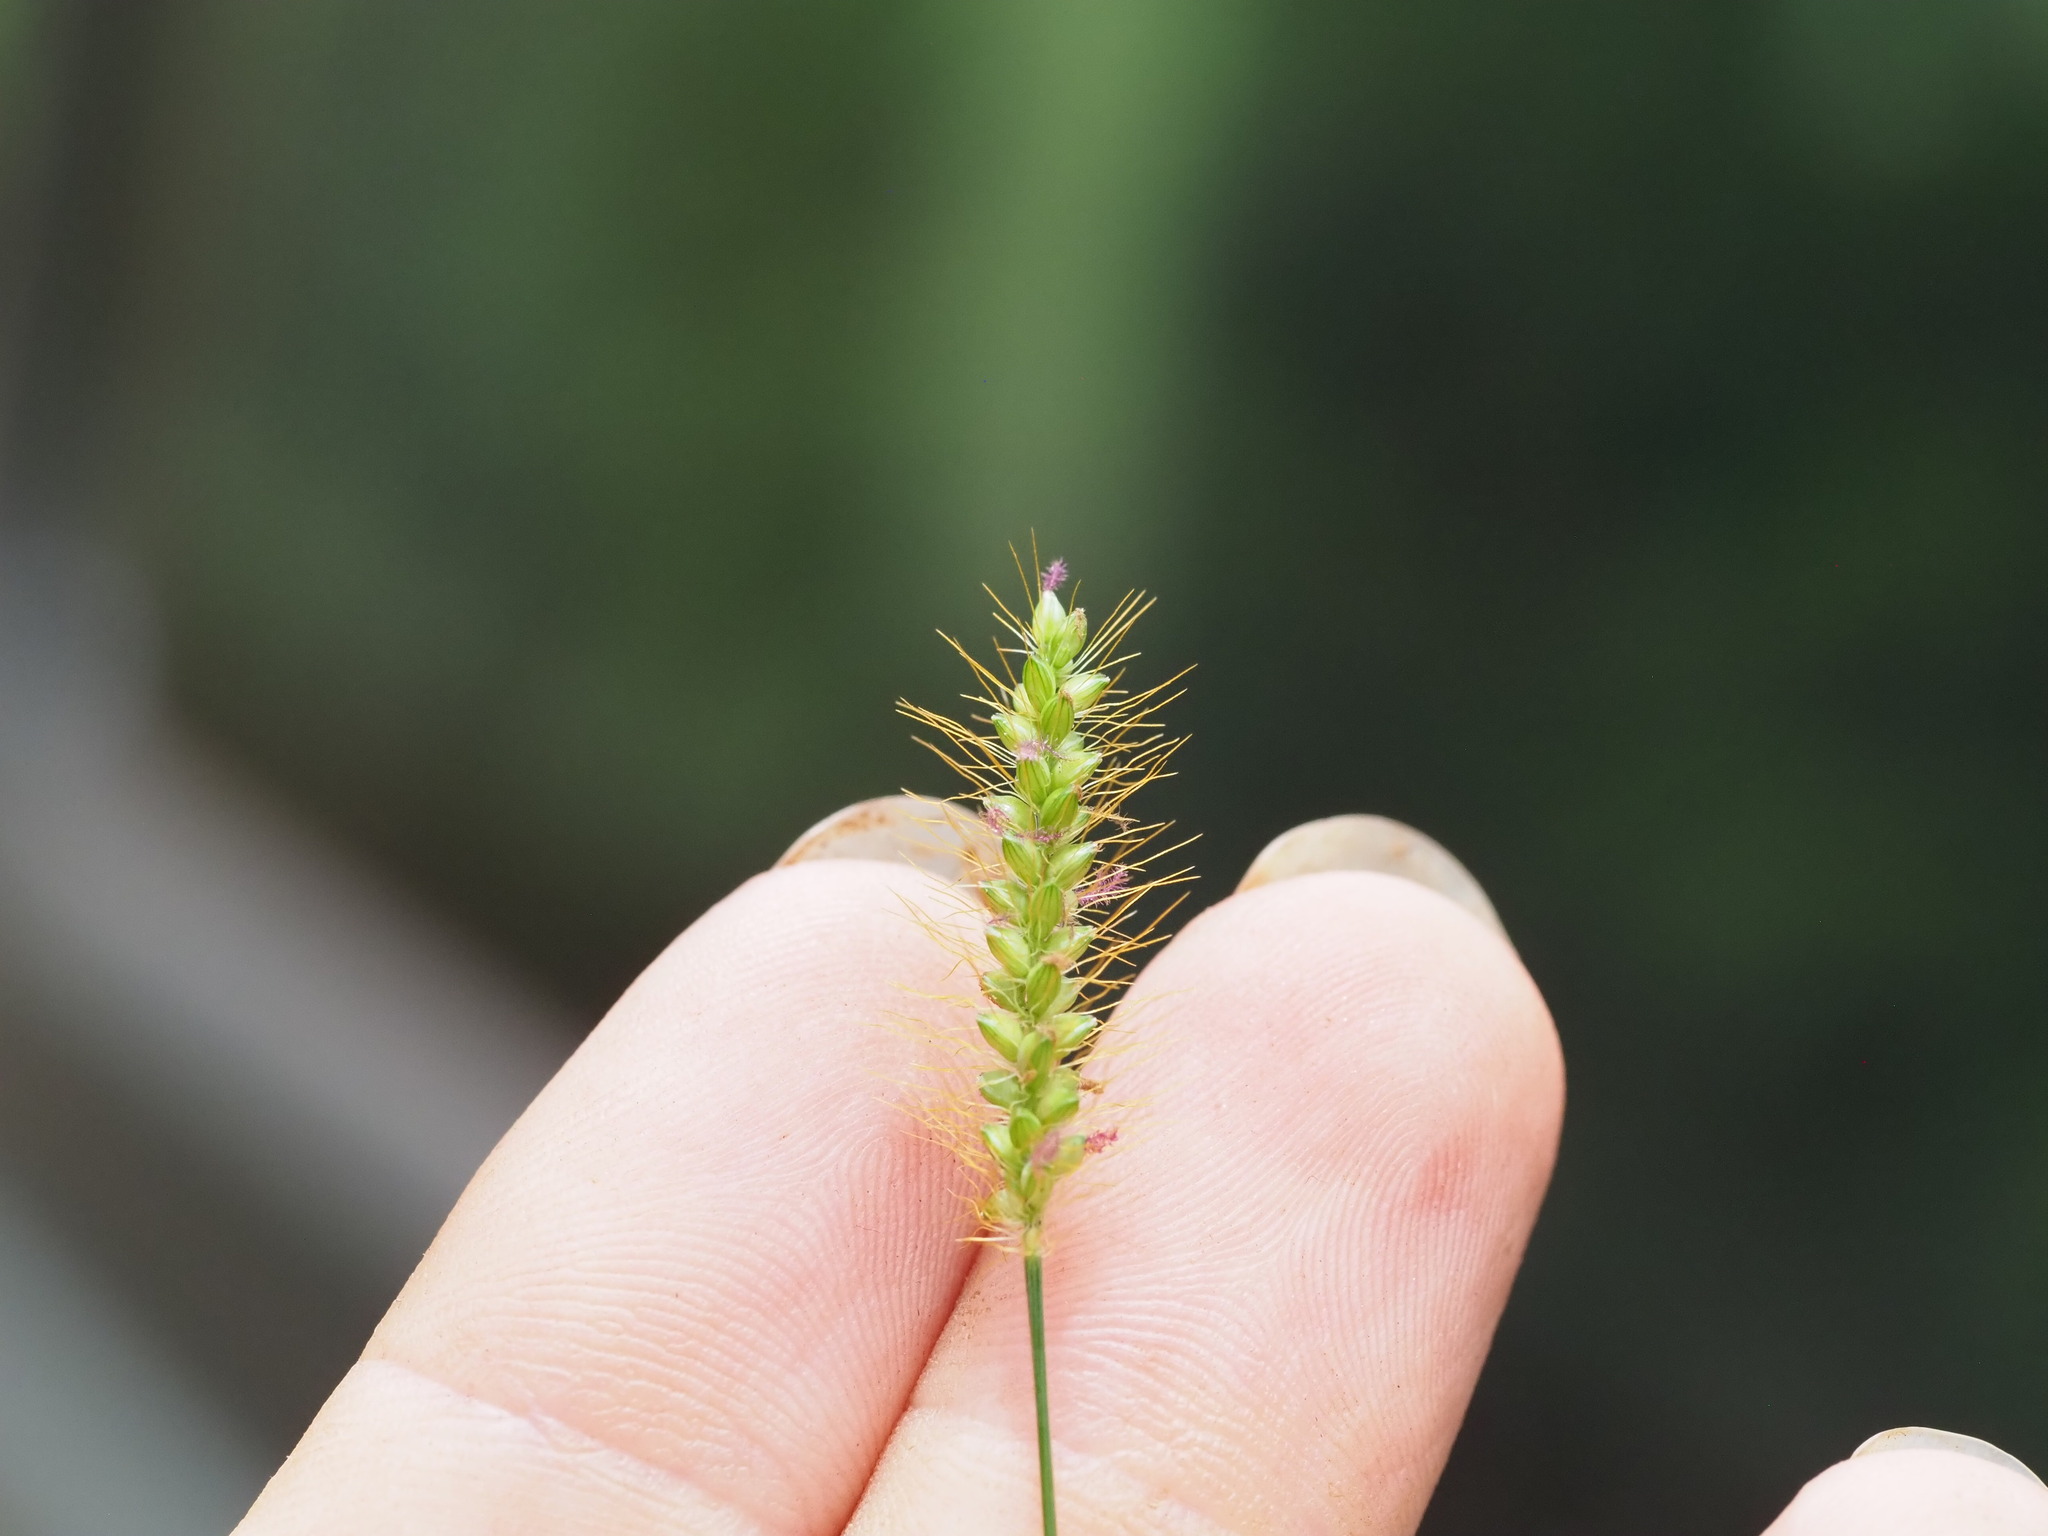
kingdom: Plantae
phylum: Tracheophyta
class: Liliopsida
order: Poales
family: Poaceae
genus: Setaria
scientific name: Setaria parviflora
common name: Knotroot bristle-grass
